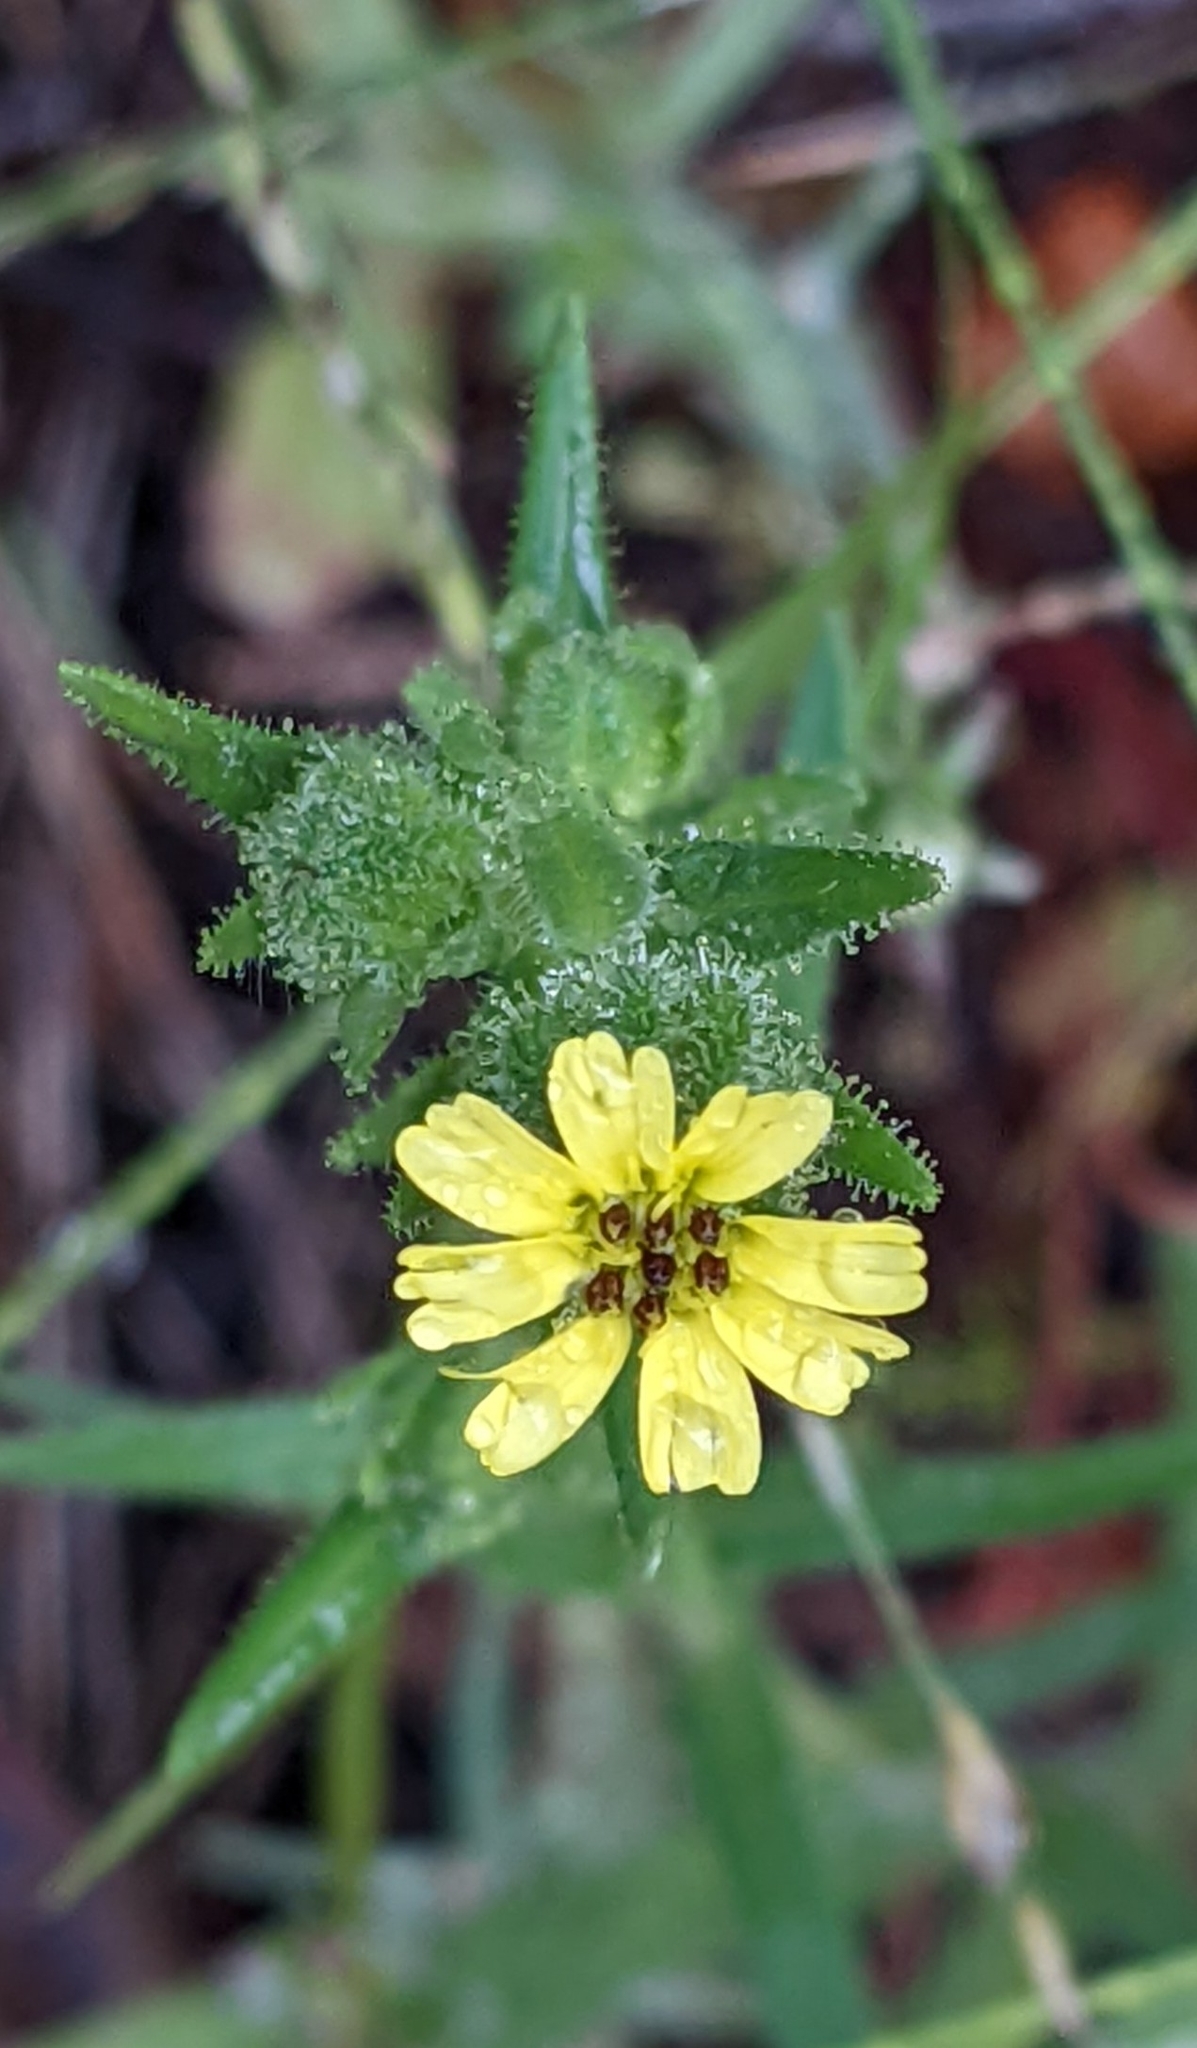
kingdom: Plantae
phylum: Tracheophyta
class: Magnoliopsida
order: Asterales
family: Asteraceae
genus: Madia
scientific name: Madia gracilis
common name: Grassy tarweed
